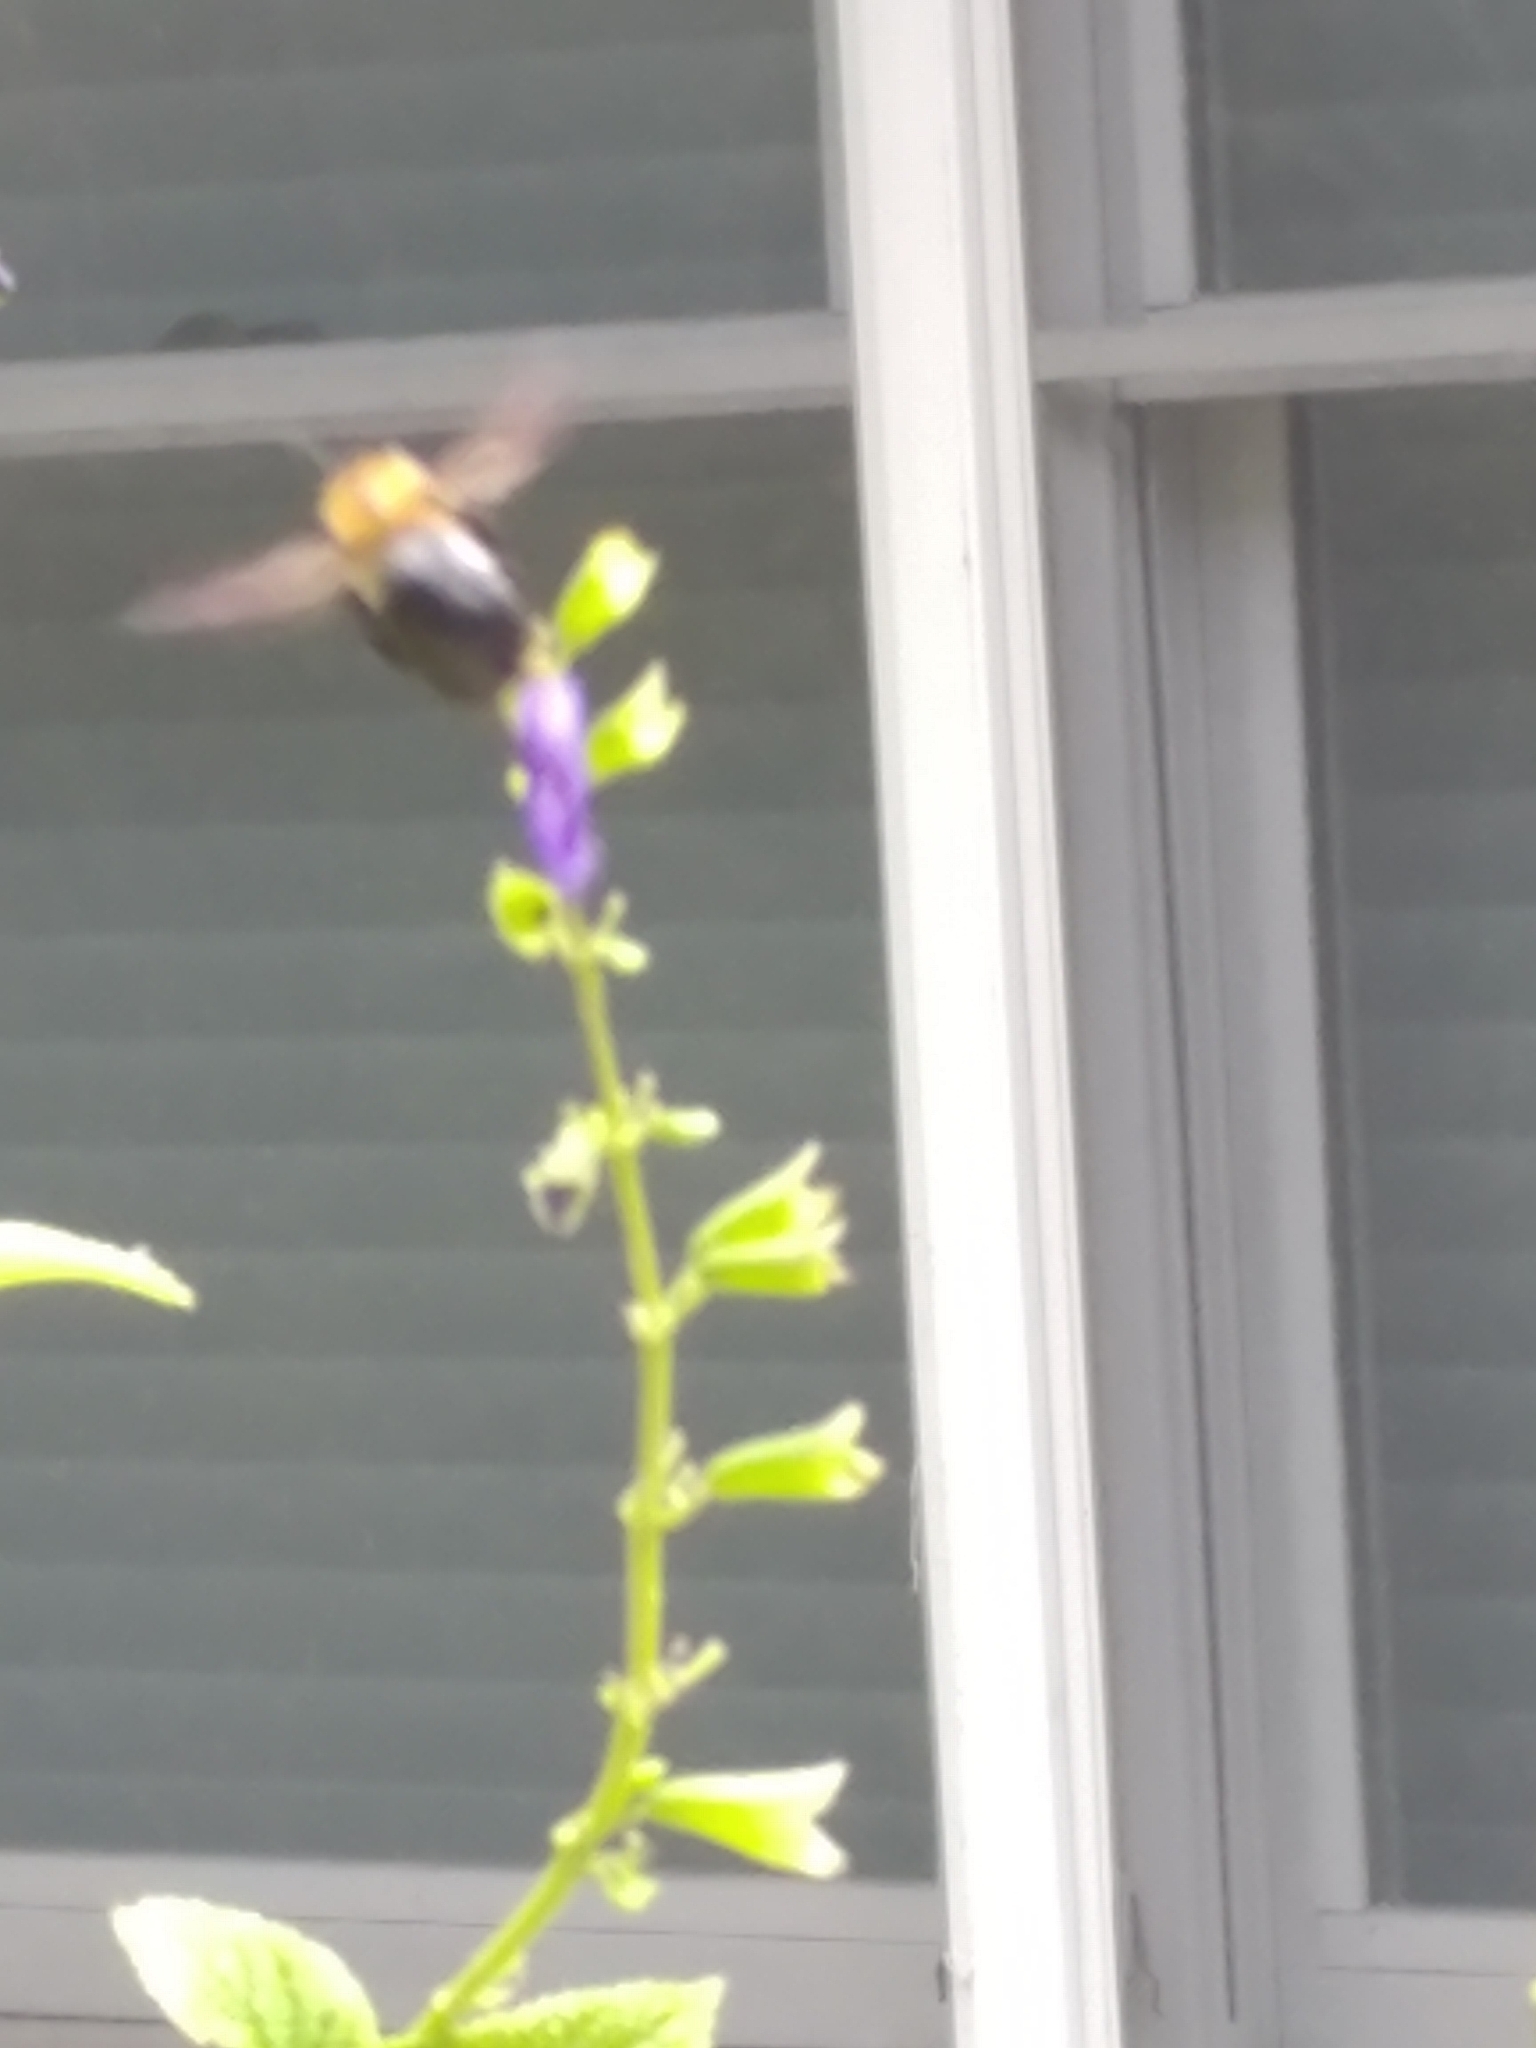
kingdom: Animalia
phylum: Arthropoda
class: Insecta
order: Hymenoptera
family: Apidae
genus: Xylocopa
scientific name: Xylocopa virginica
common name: Carpenter bee
